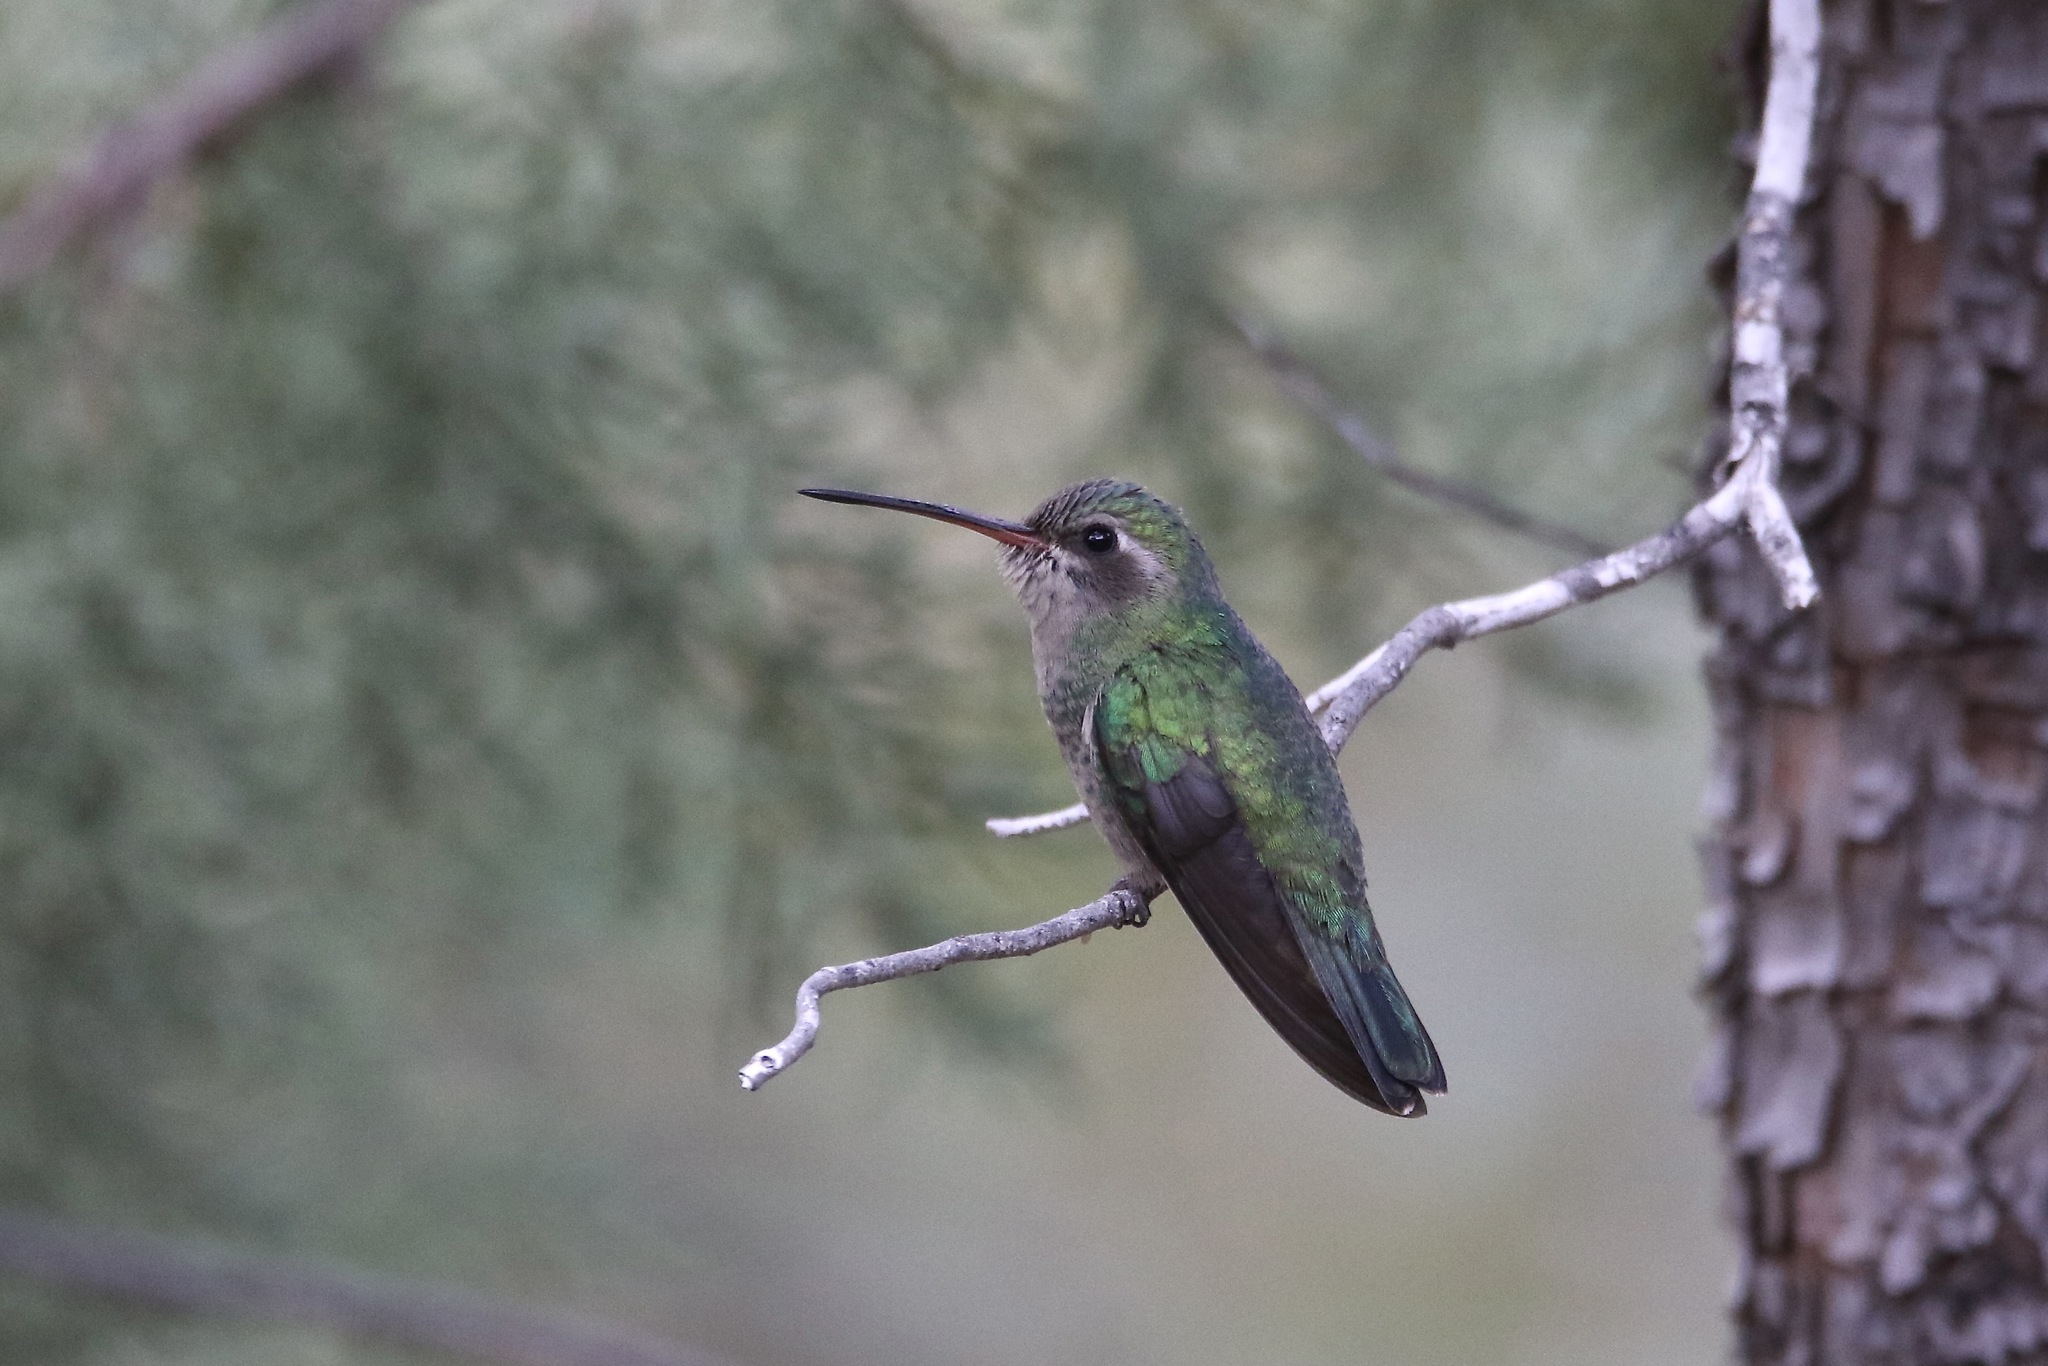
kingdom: Animalia
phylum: Chordata
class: Aves
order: Apodiformes
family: Trochilidae
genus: Cynanthus
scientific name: Cynanthus latirostris
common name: Broad-billed hummingbird
